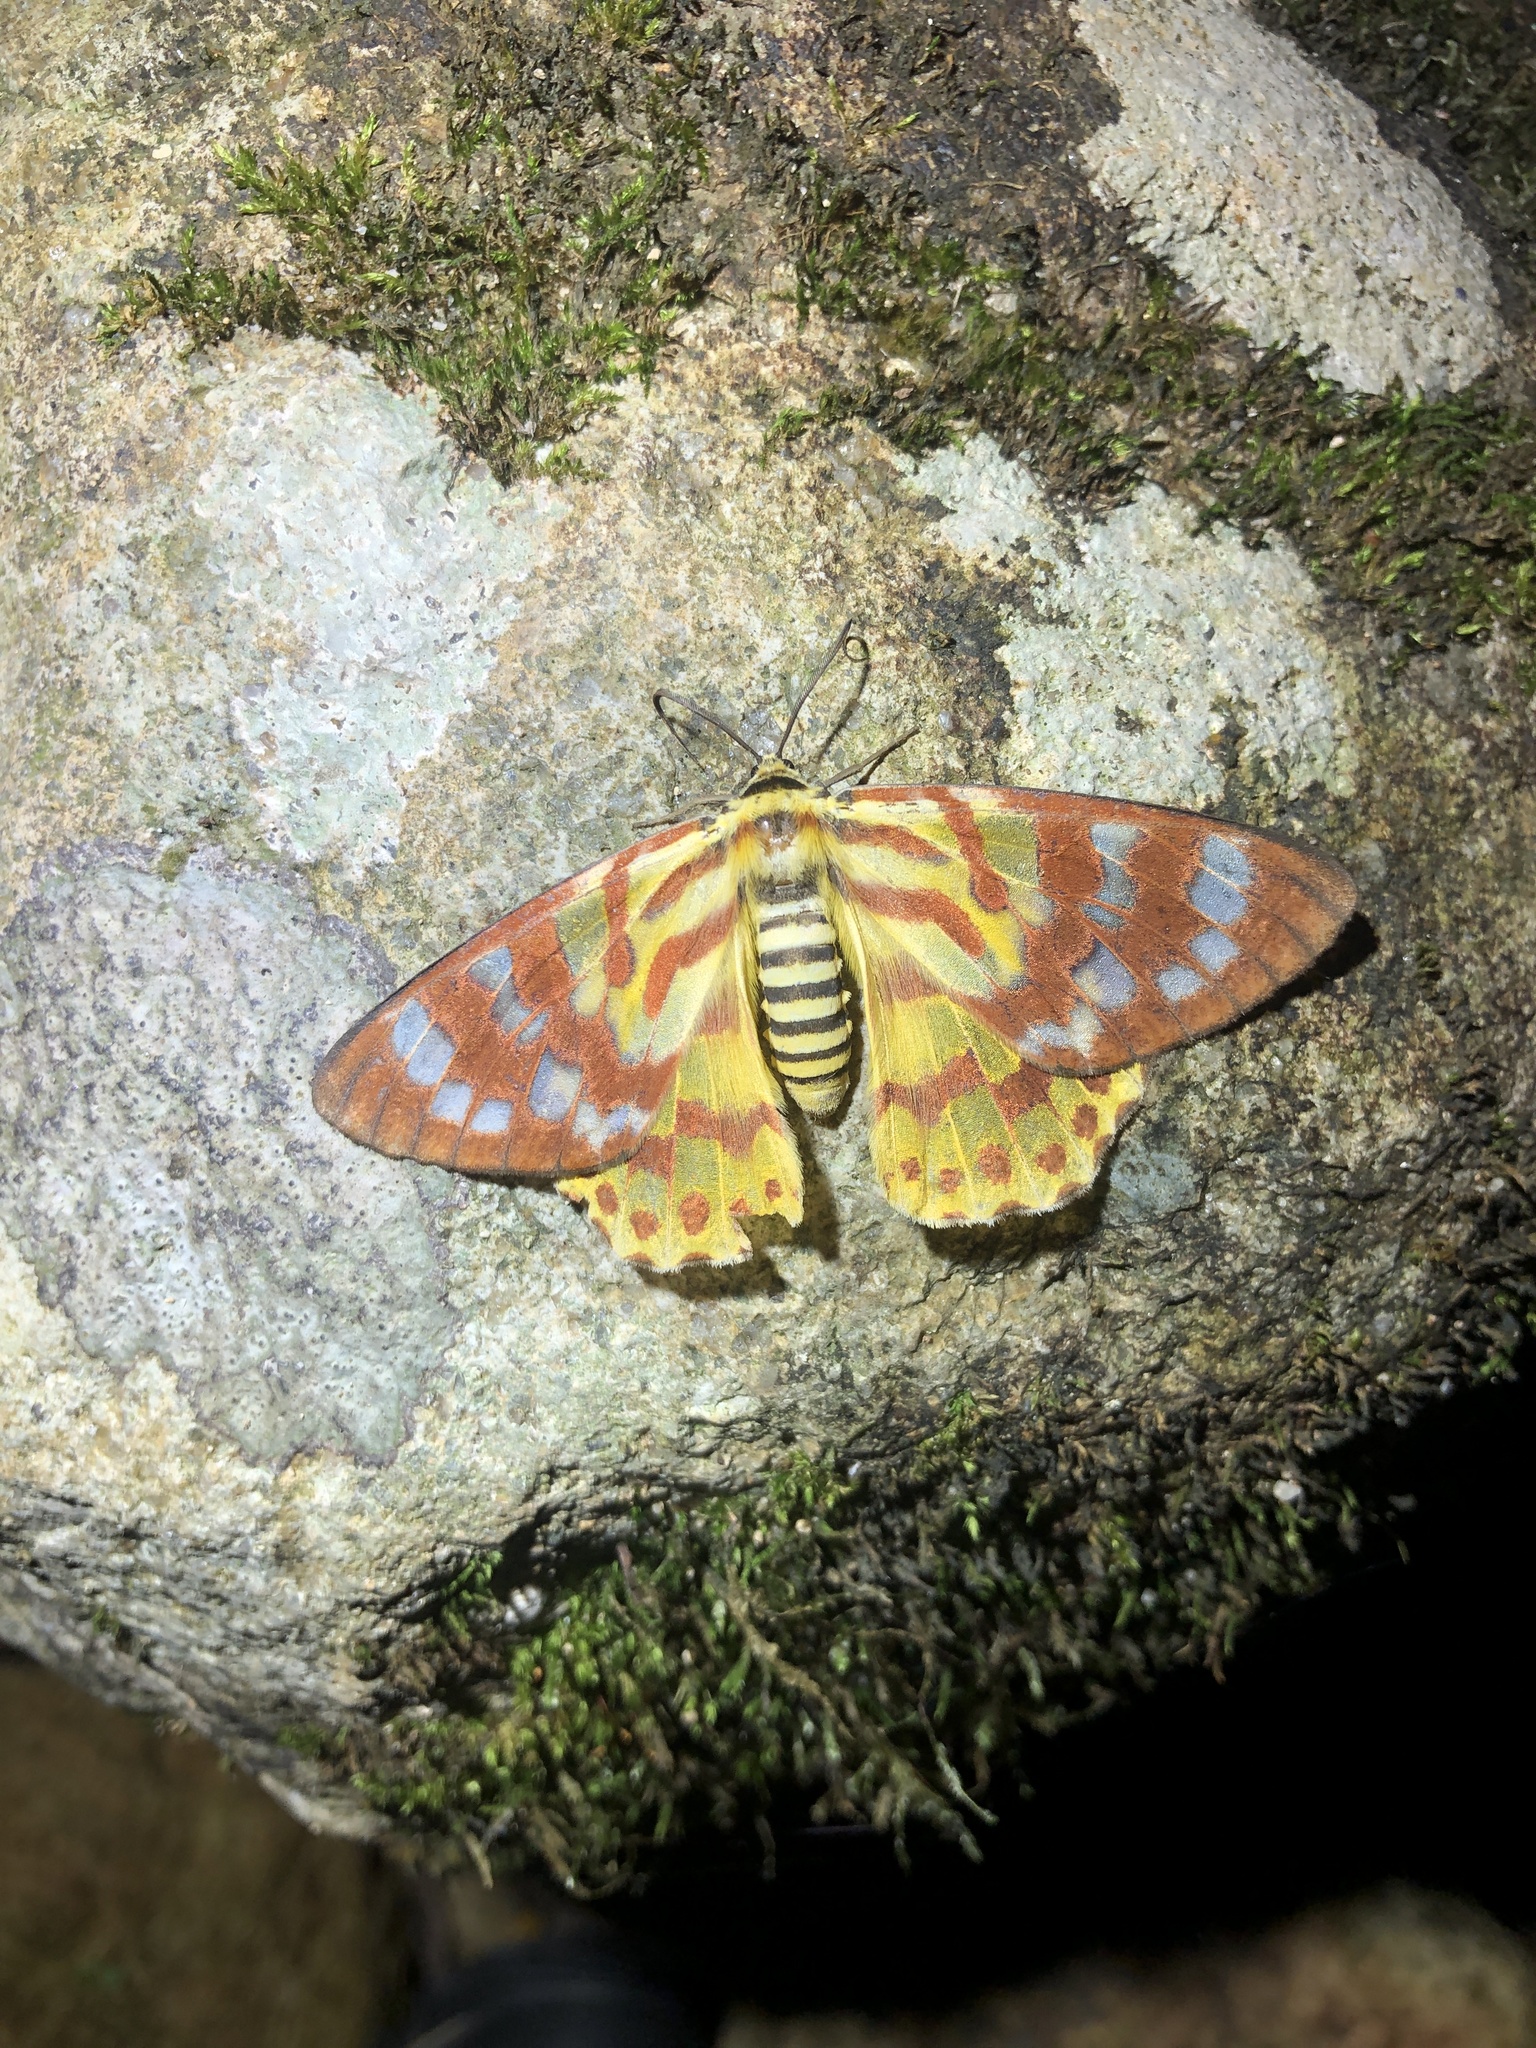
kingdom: Animalia
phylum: Arthropoda
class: Insecta
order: Lepidoptera
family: Geometridae
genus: Dysphania
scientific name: Dysphania militaris
